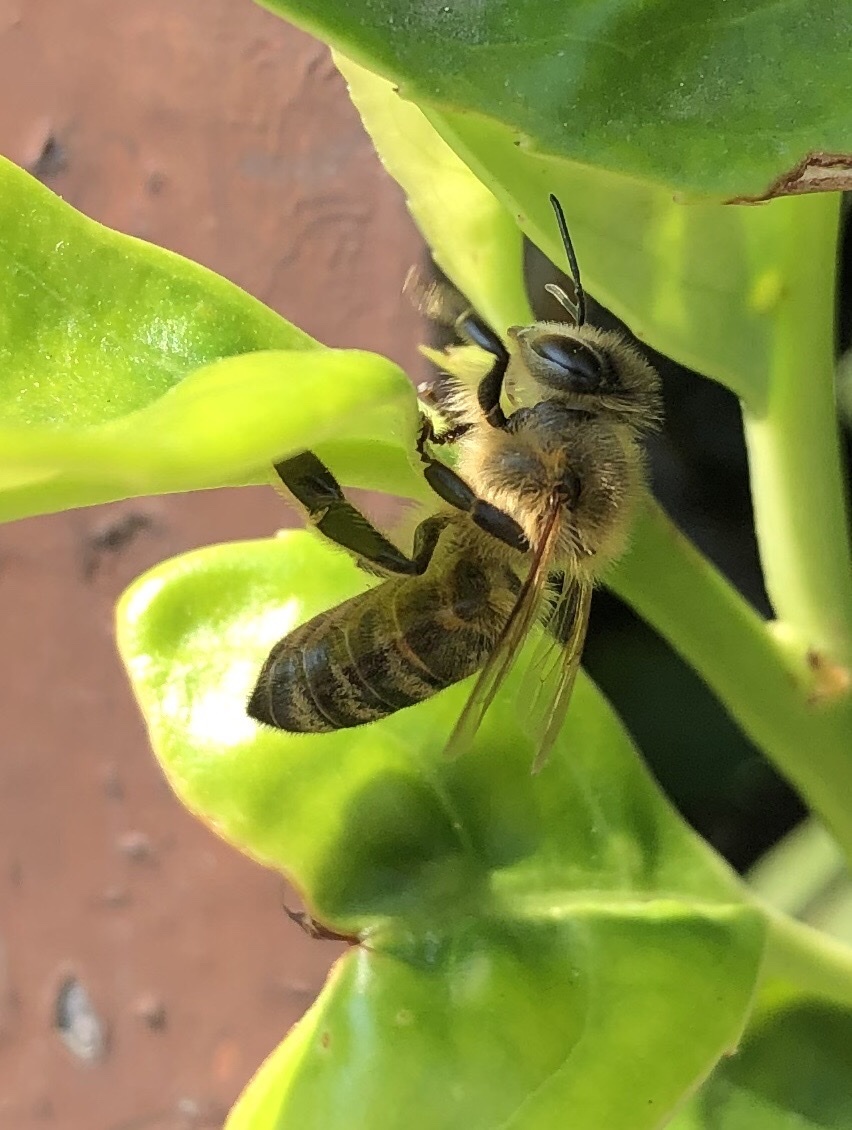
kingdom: Animalia
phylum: Arthropoda
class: Insecta
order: Hymenoptera
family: Apidae
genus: Apis
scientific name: Apis mellifera
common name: Honey bee
